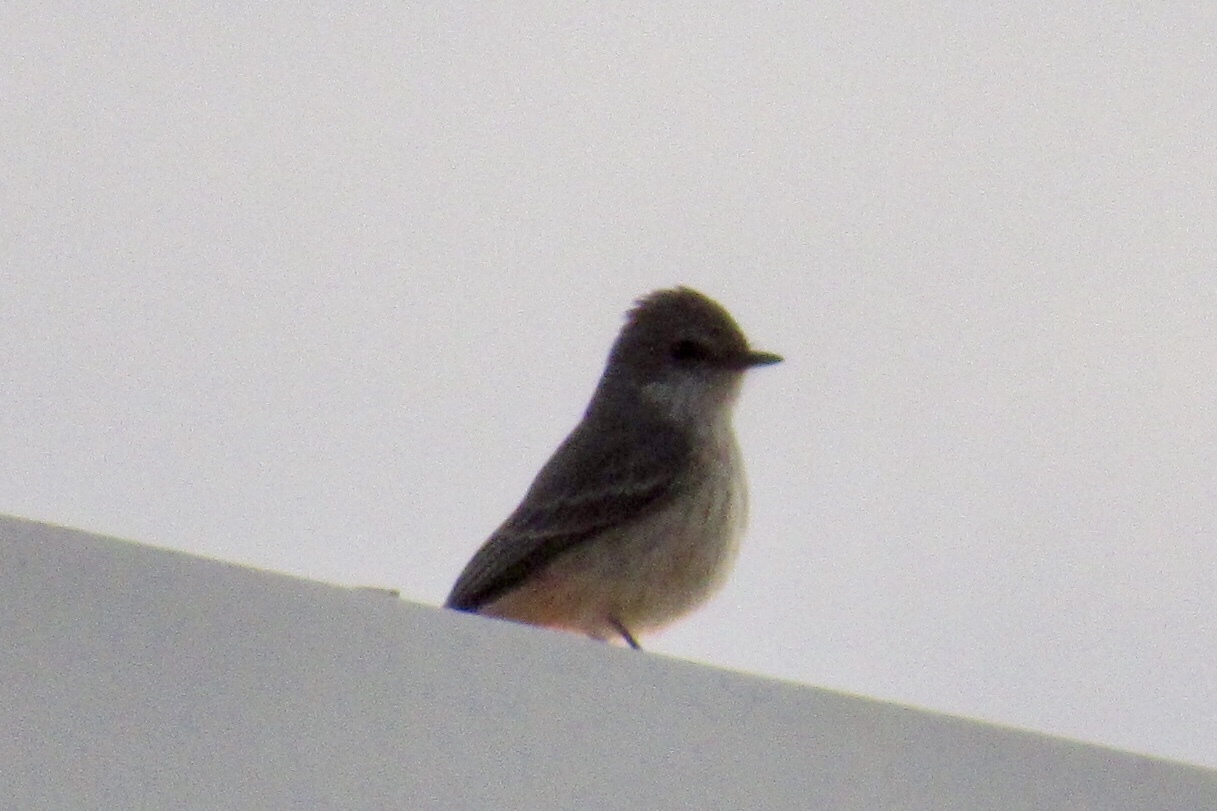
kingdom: Animalia
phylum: Chordata
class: Aves
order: Passeriformes
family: Tyrannidae
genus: Pyrocephalus
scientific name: Pyrocephalus rubinus
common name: Vermilion flycatcher
